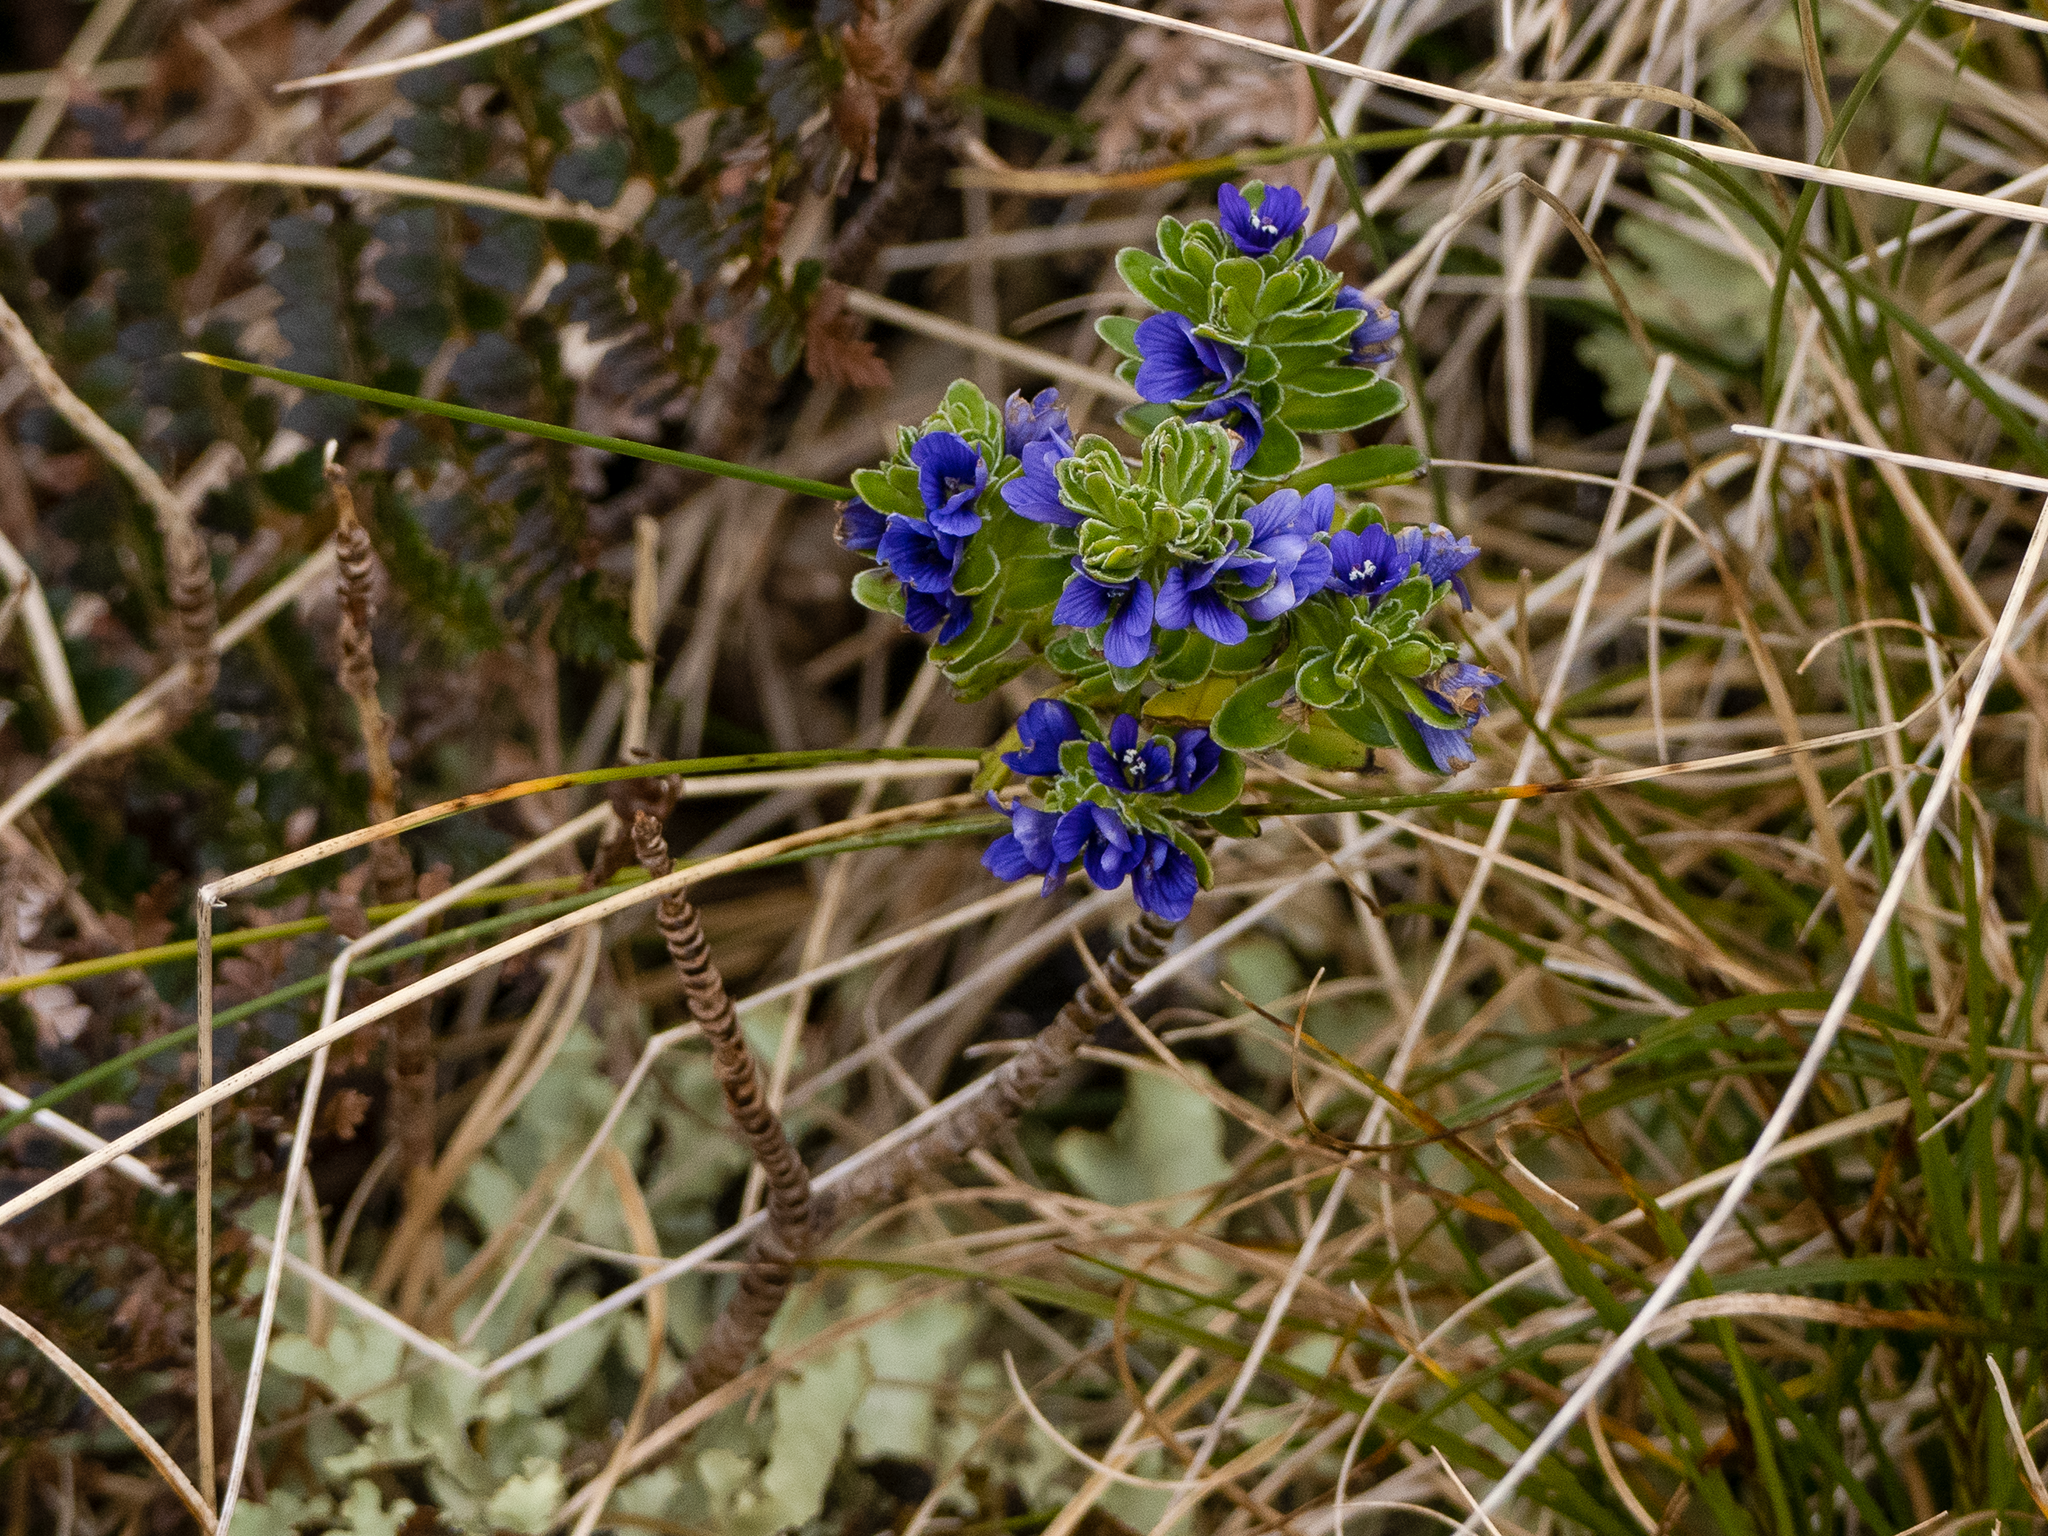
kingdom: Plantae
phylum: Tracheophyta
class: Magnoliopsida
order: Lamiales
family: Plantaginaceae
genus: Veronica
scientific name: Veronica benthamii
